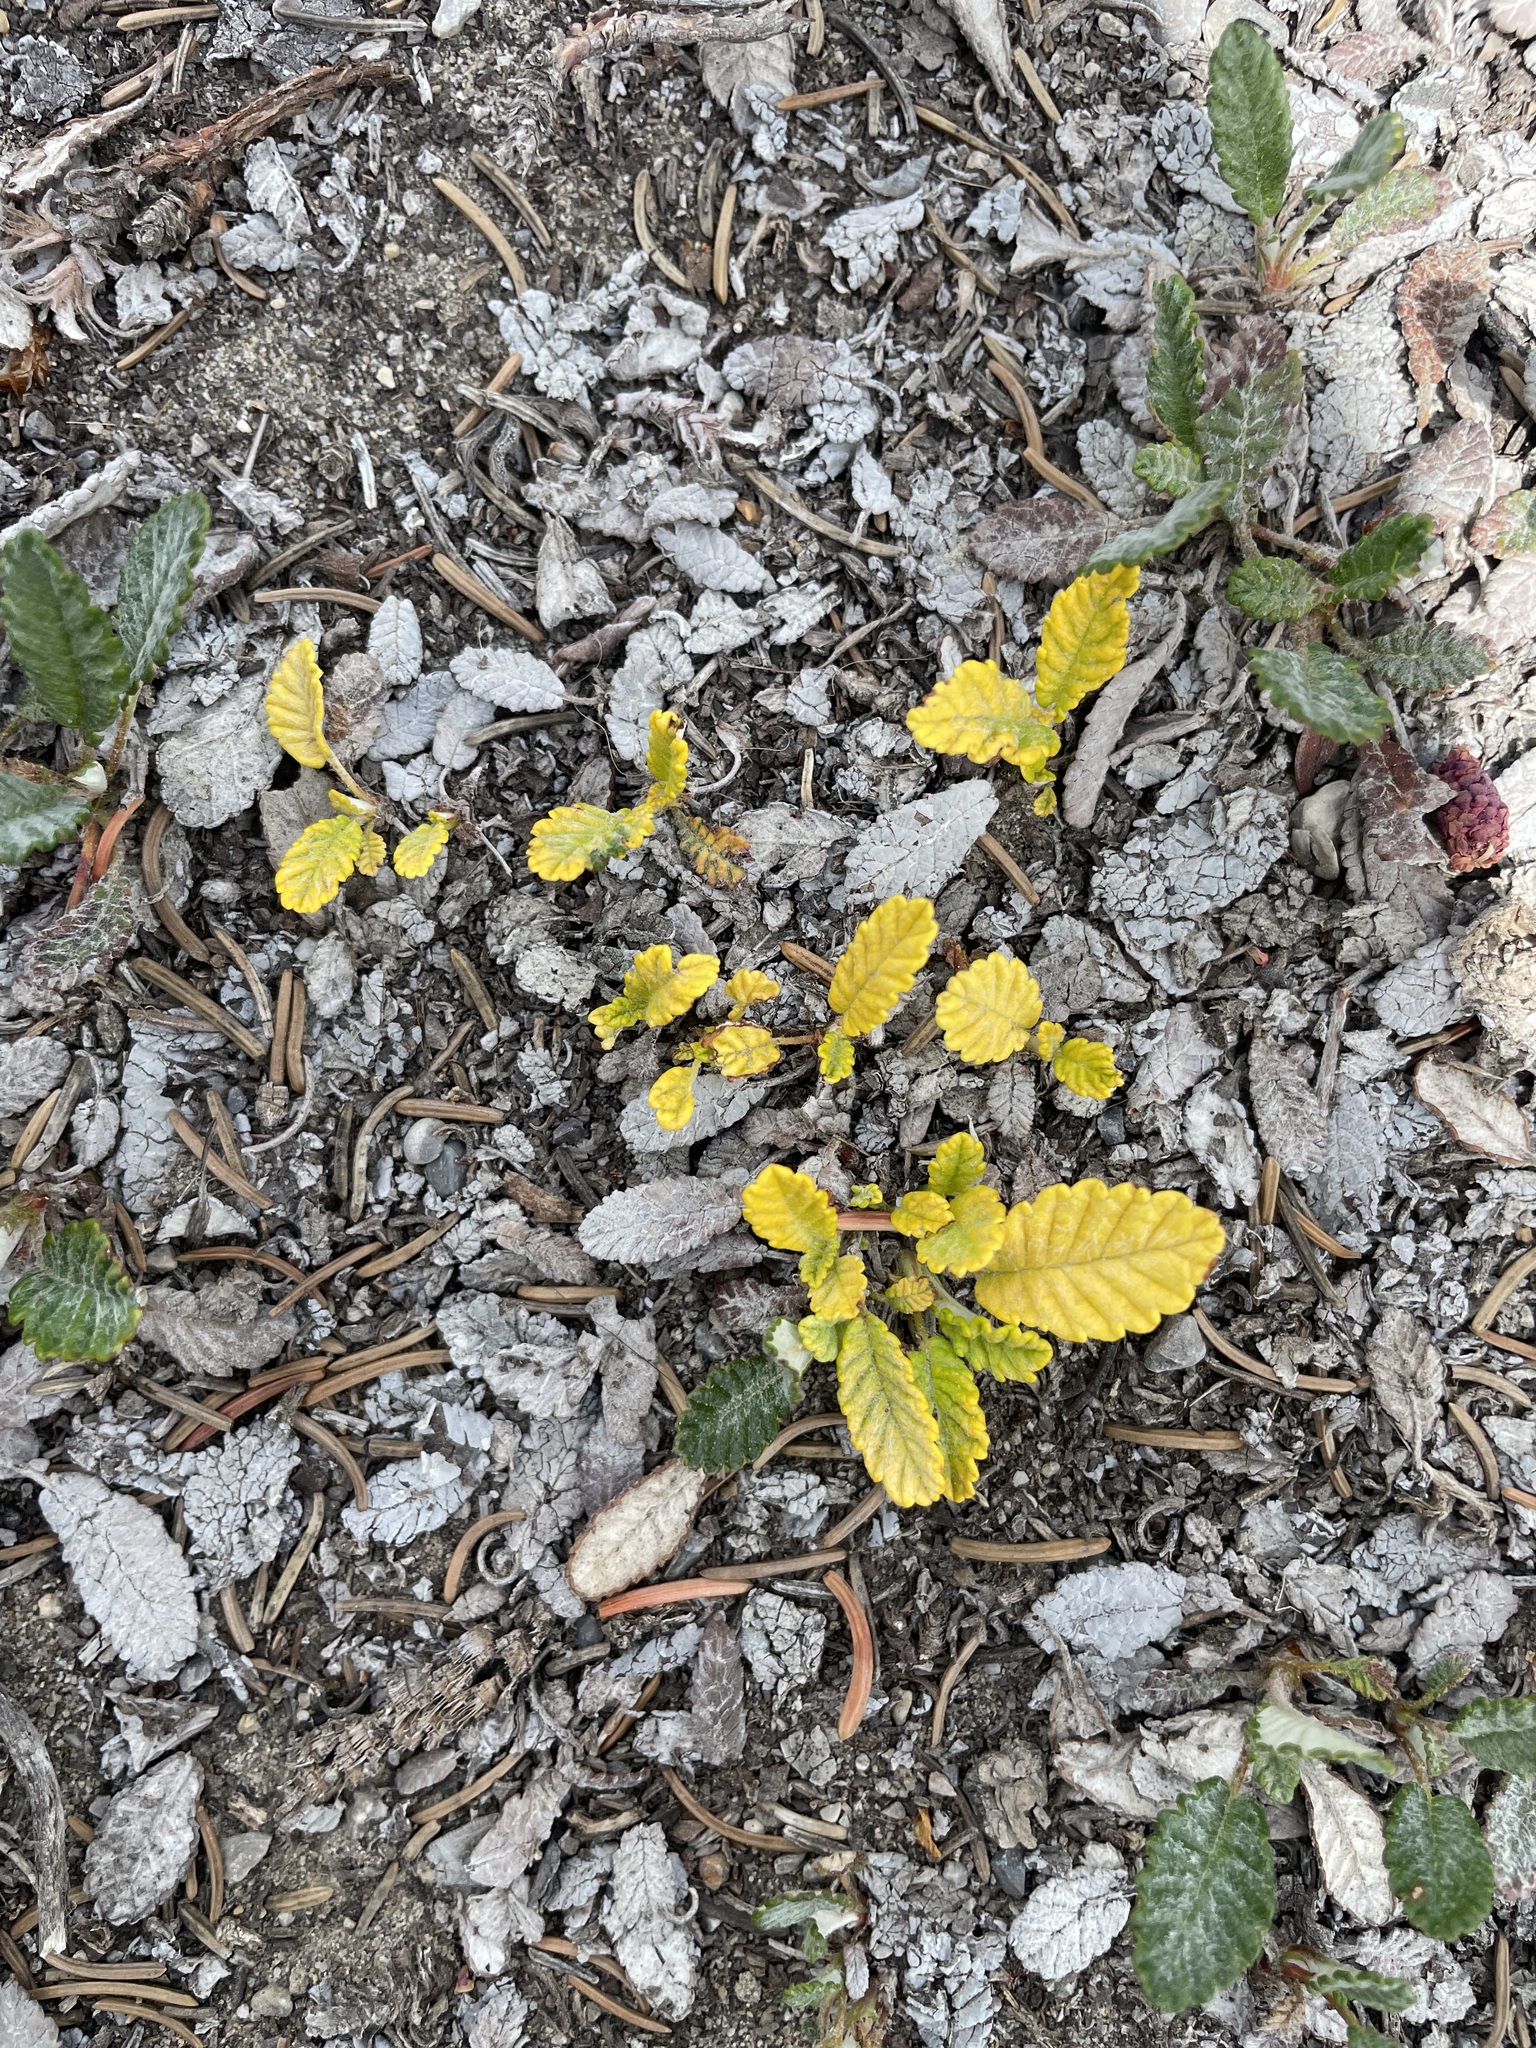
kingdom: Plantae
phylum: Tracheophyta
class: Magnoliopsida
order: Rosales
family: Rosaceae
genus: Dryas
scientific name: Dryas drummondii
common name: Drummond's dryad
